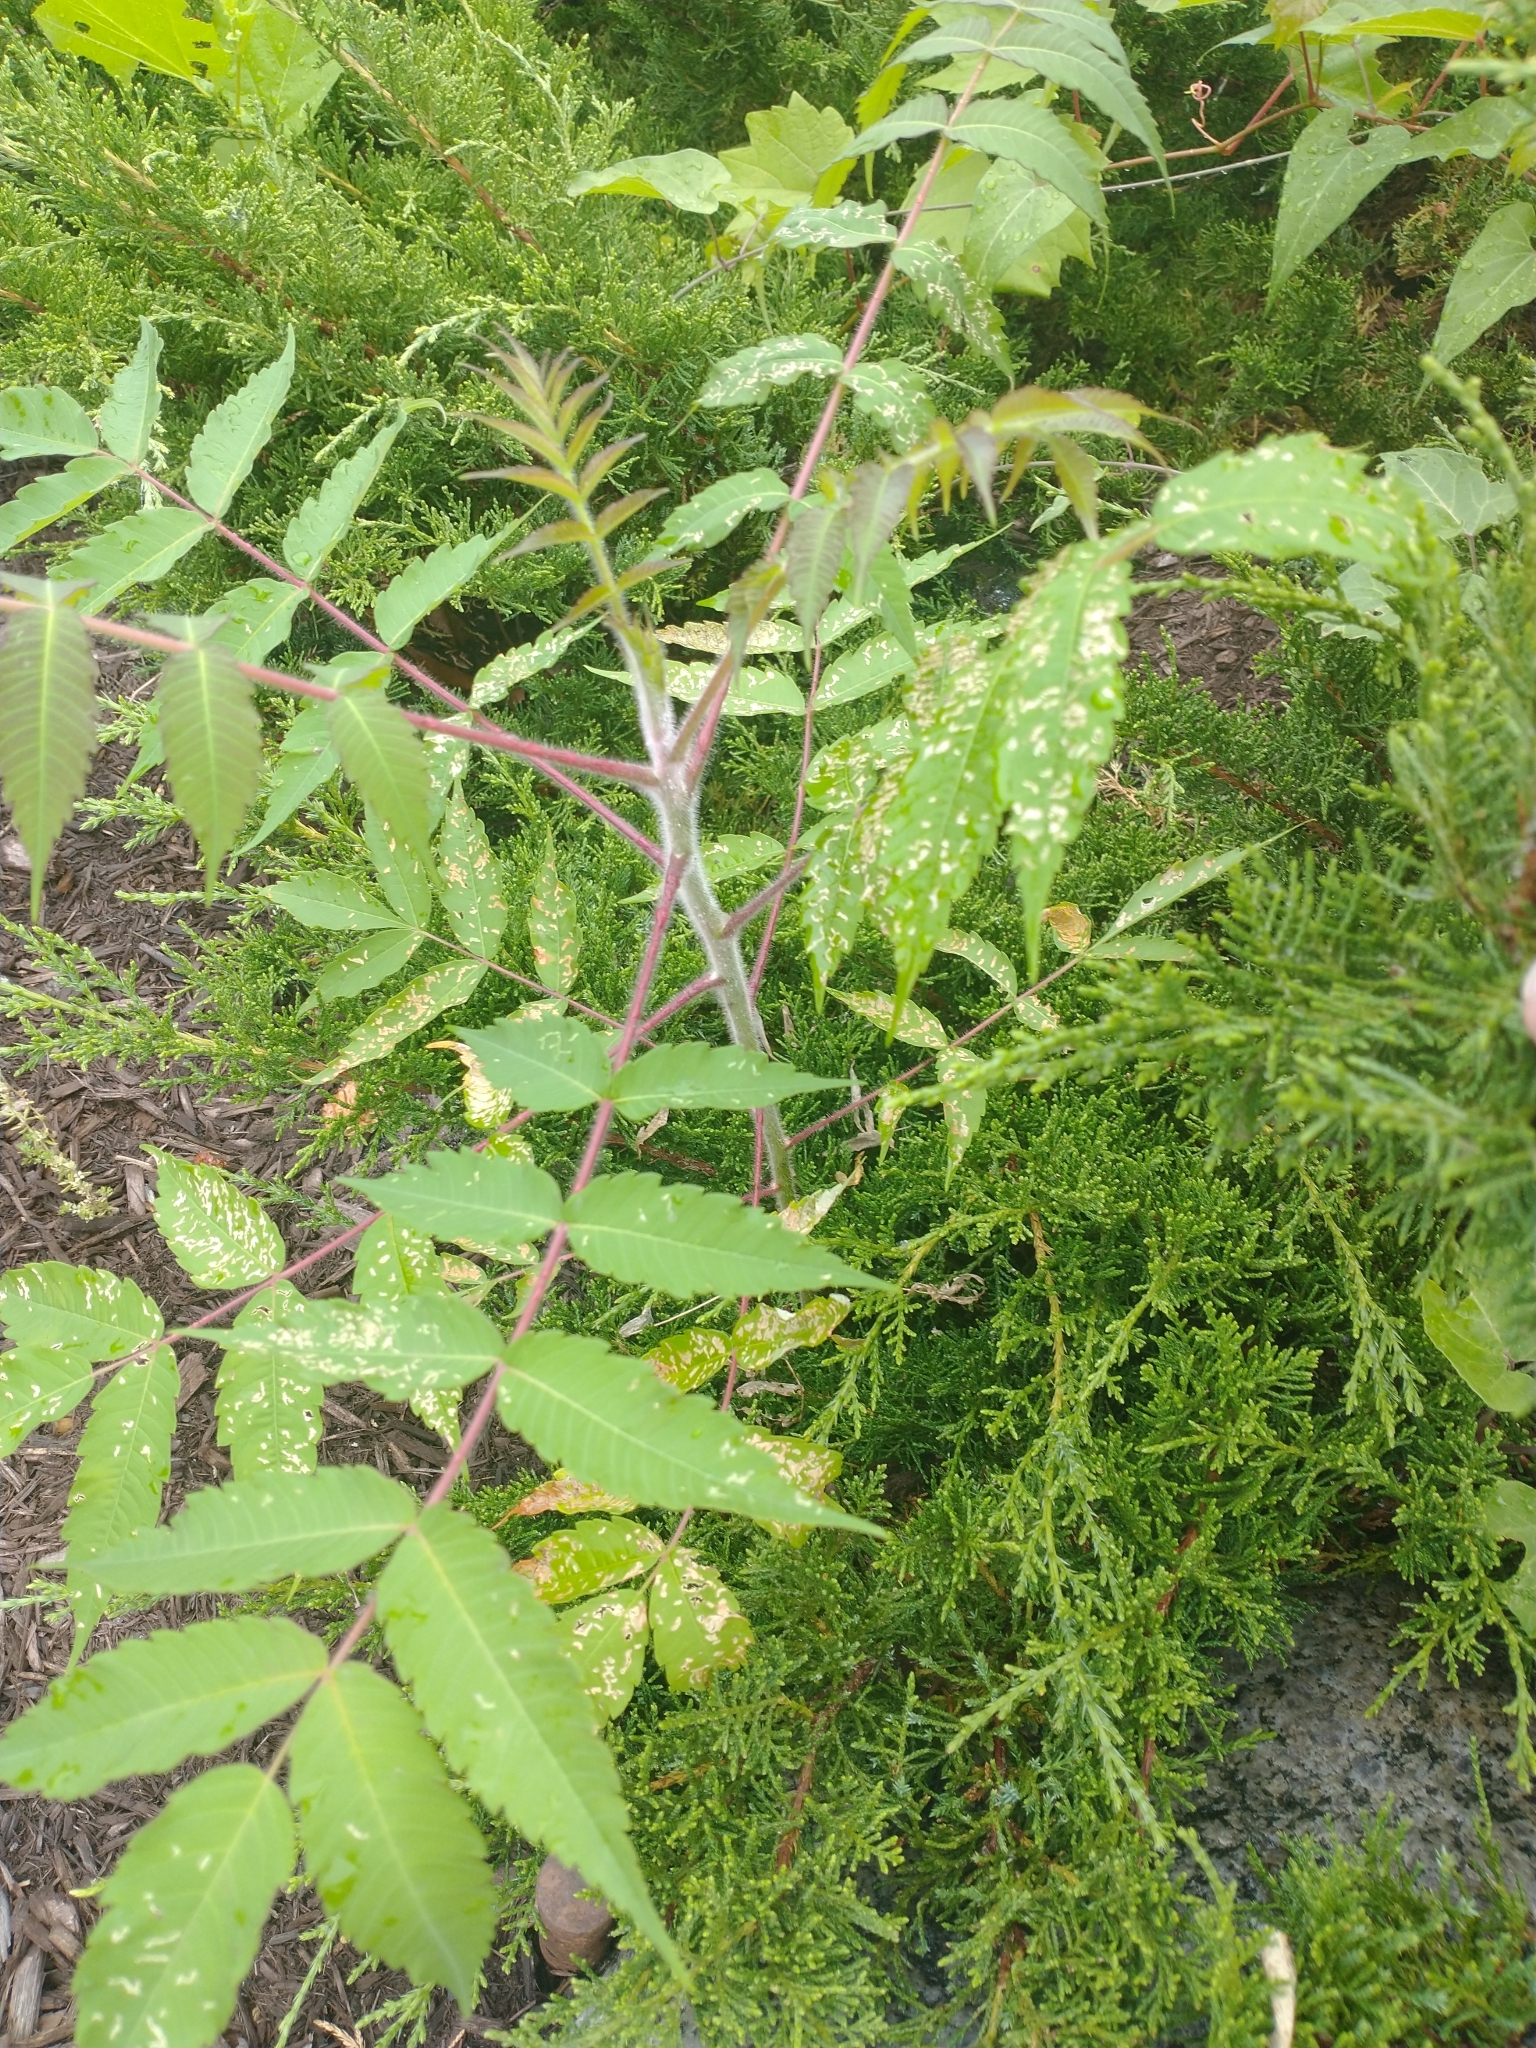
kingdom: Plantae
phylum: Tracheophyta
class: Magnoliopsida
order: Sapindales
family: Anacardiaceae
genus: Rhus
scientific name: Rhus typhina
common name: Staghorn sumac
